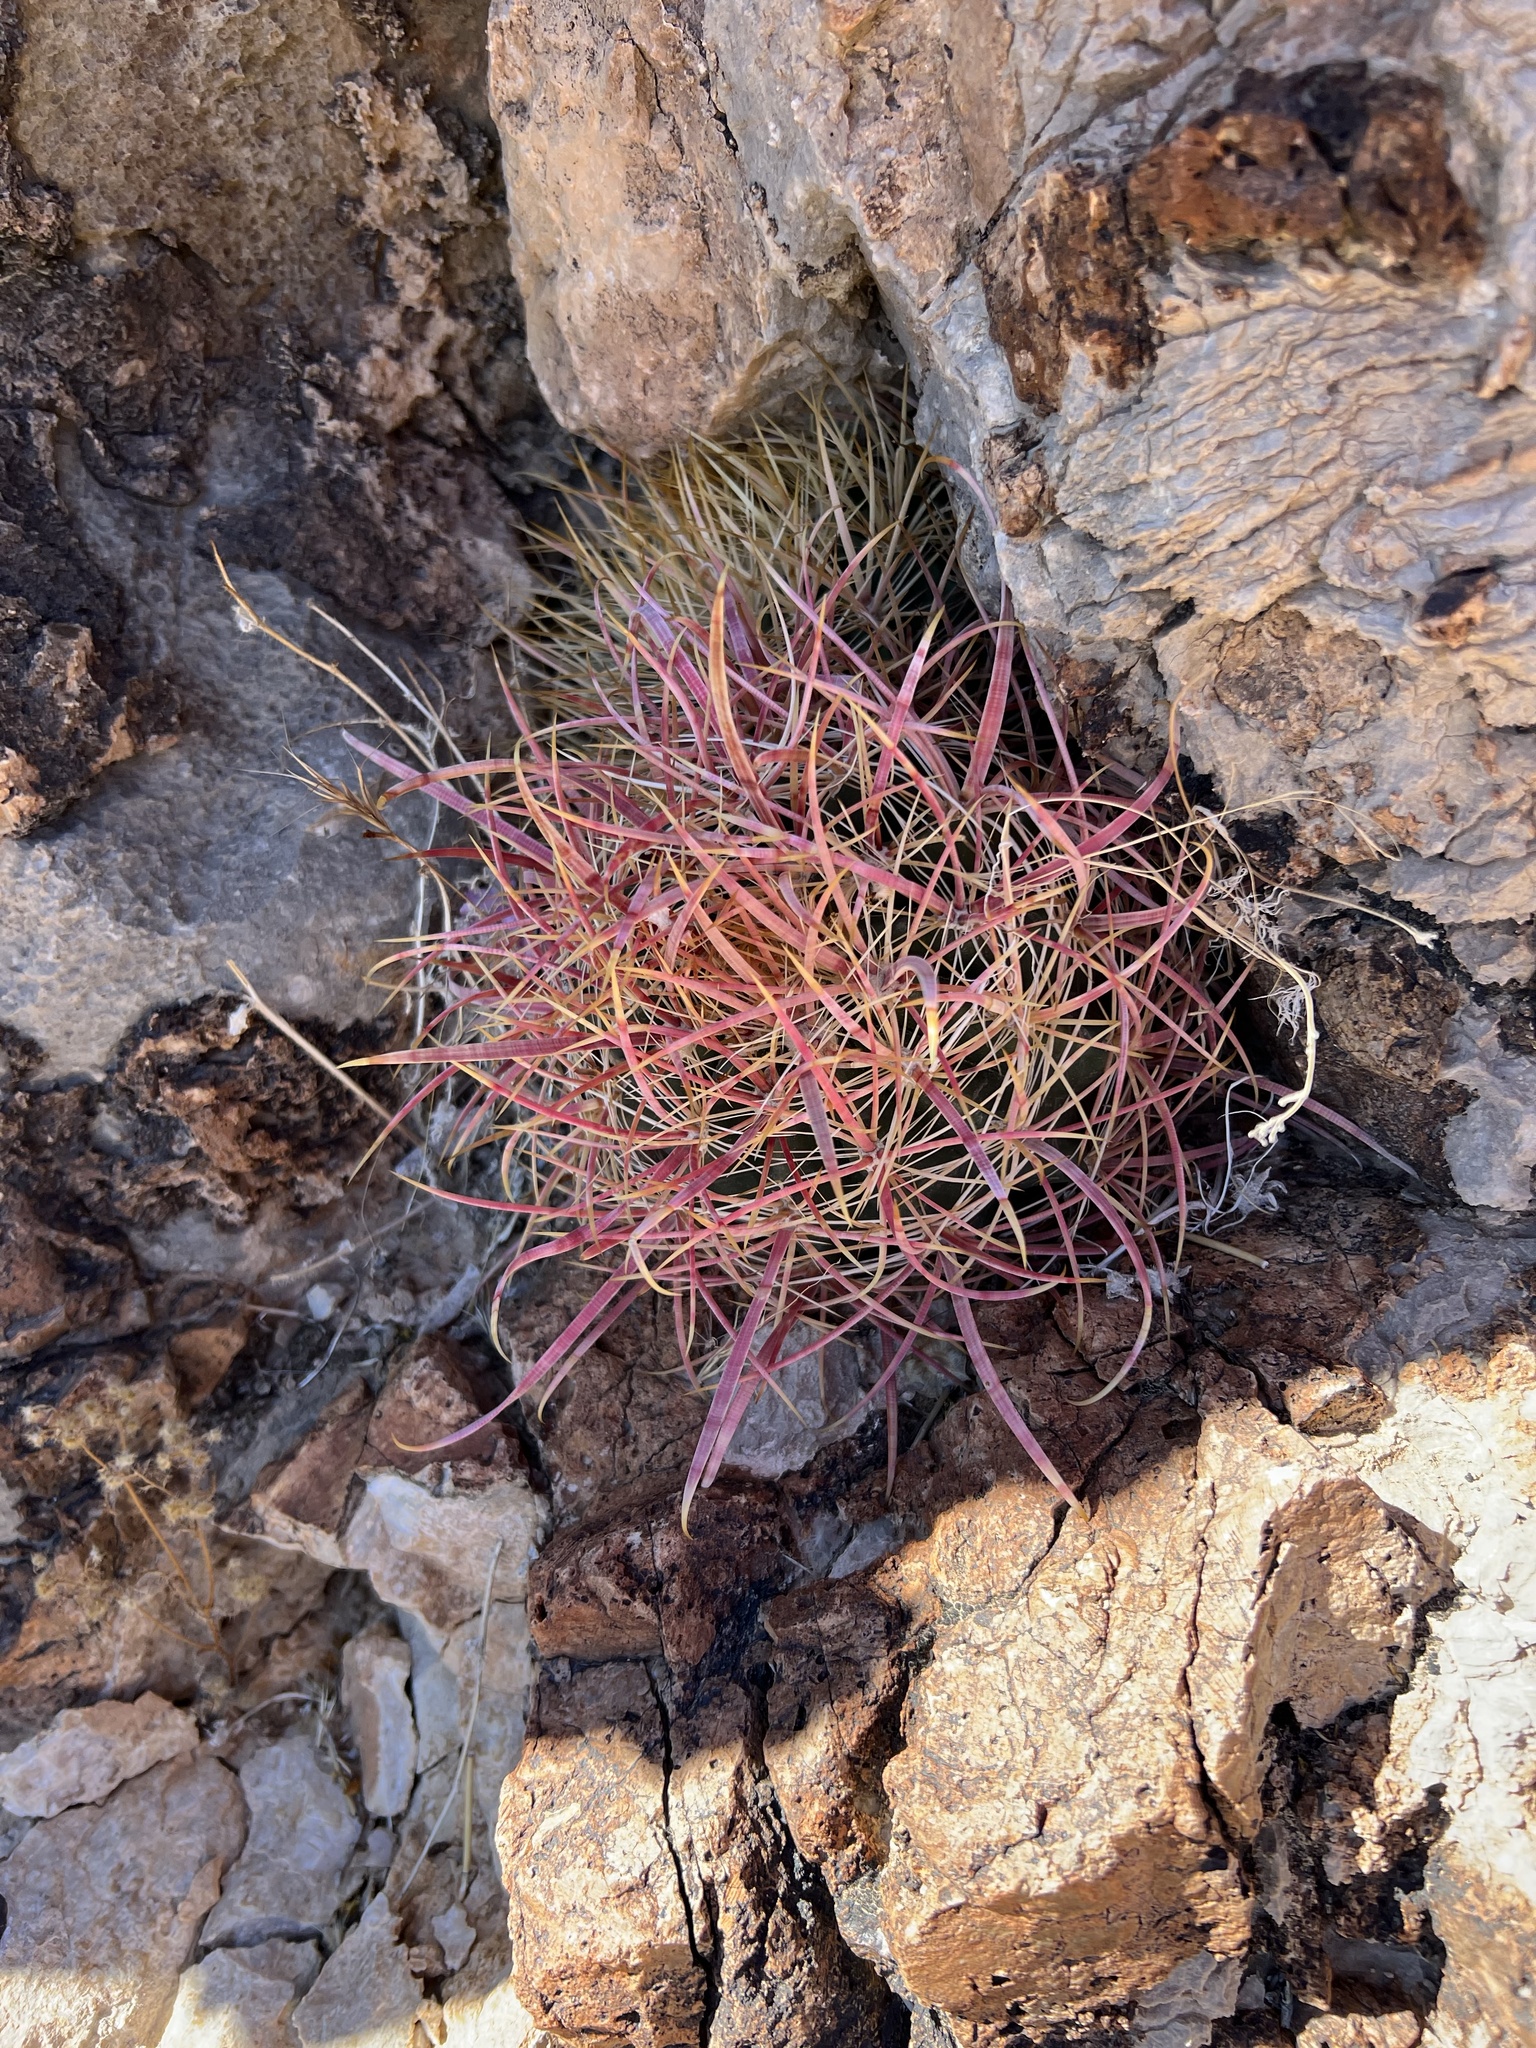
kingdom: Plantae
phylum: Tracheophyta
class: Magnoliopsida
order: Caryophyllales
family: Cactaceae
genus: Ferocactus
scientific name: Ferocactus cylindraceus
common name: California barrel cactus
